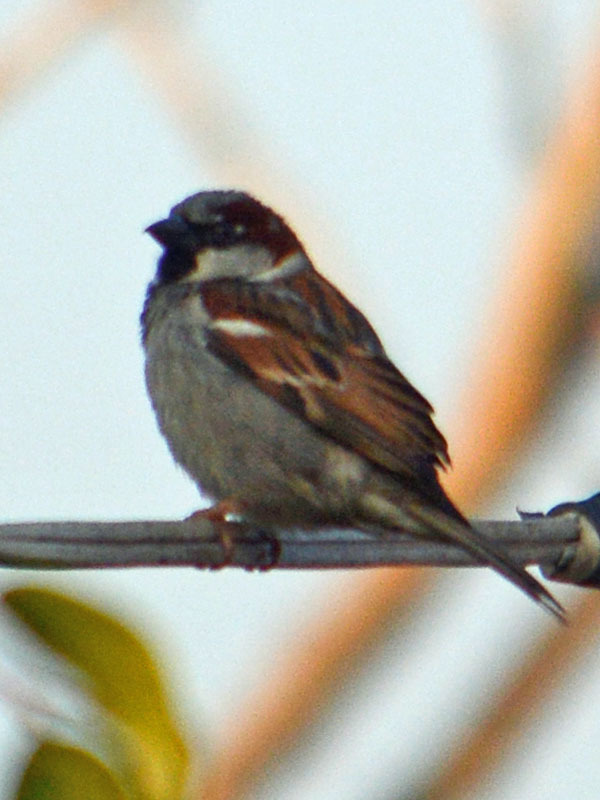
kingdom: Animalia
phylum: Chordata
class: Aves
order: Passeriformes
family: Passeridae
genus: Passer
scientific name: Passer domesticus
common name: House sparrow
